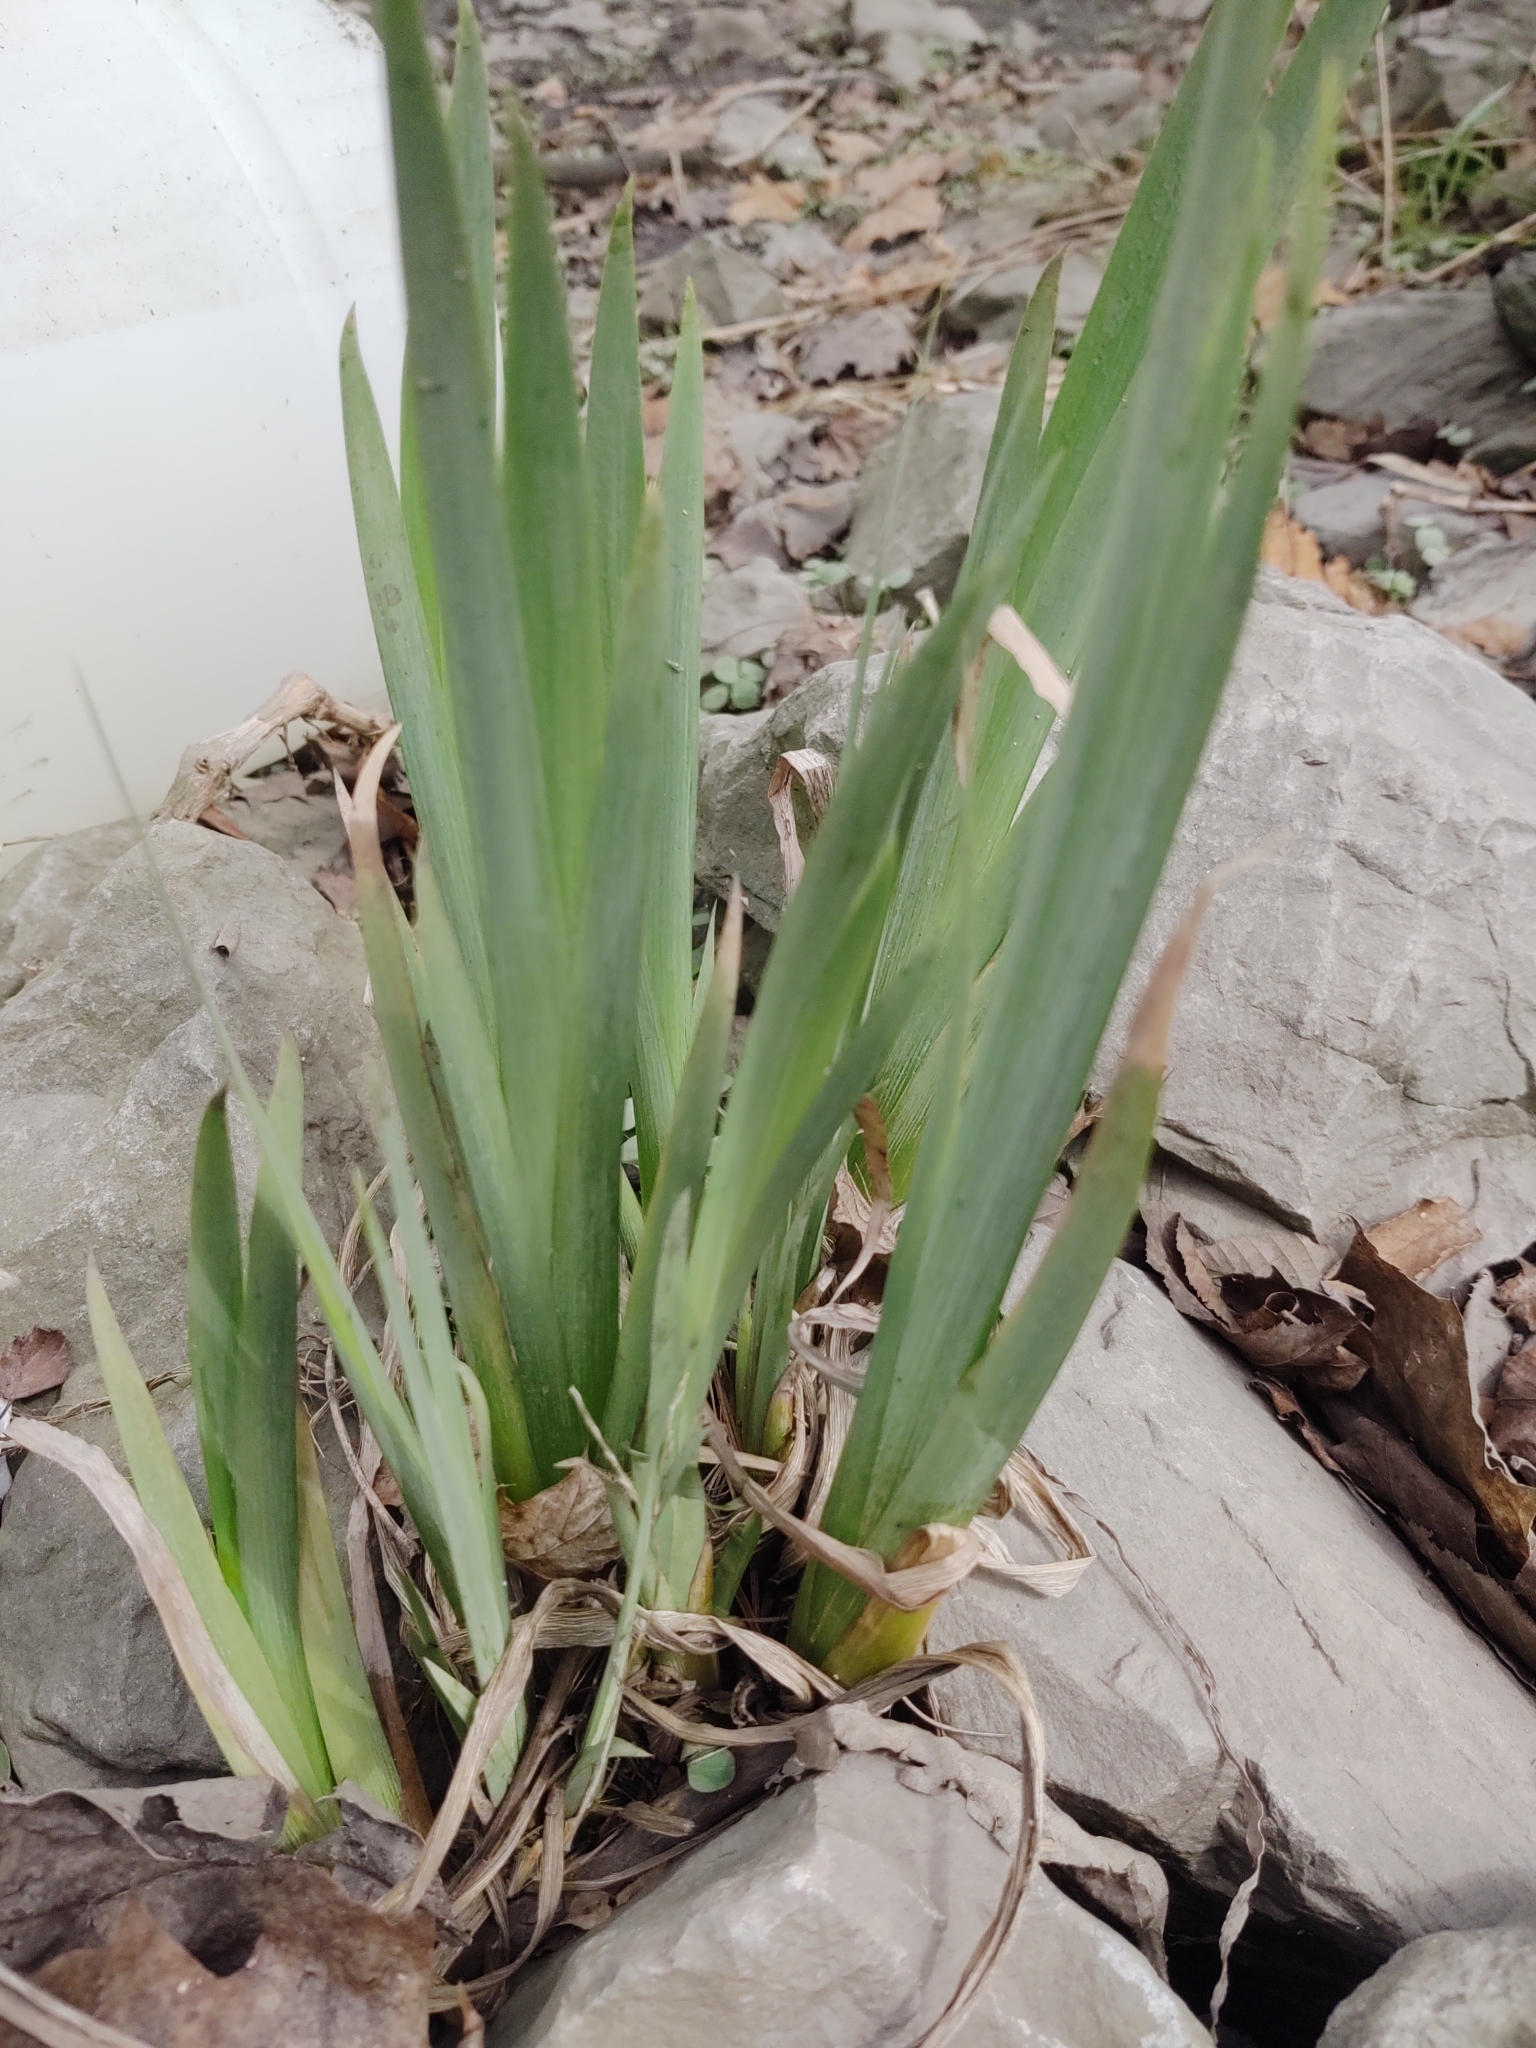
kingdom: Plantae
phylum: Tracheophyta
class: Liliopsida
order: Asparagales
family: Iridaceae
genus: Iris
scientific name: Iris pseudacorus
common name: Yellow flag
